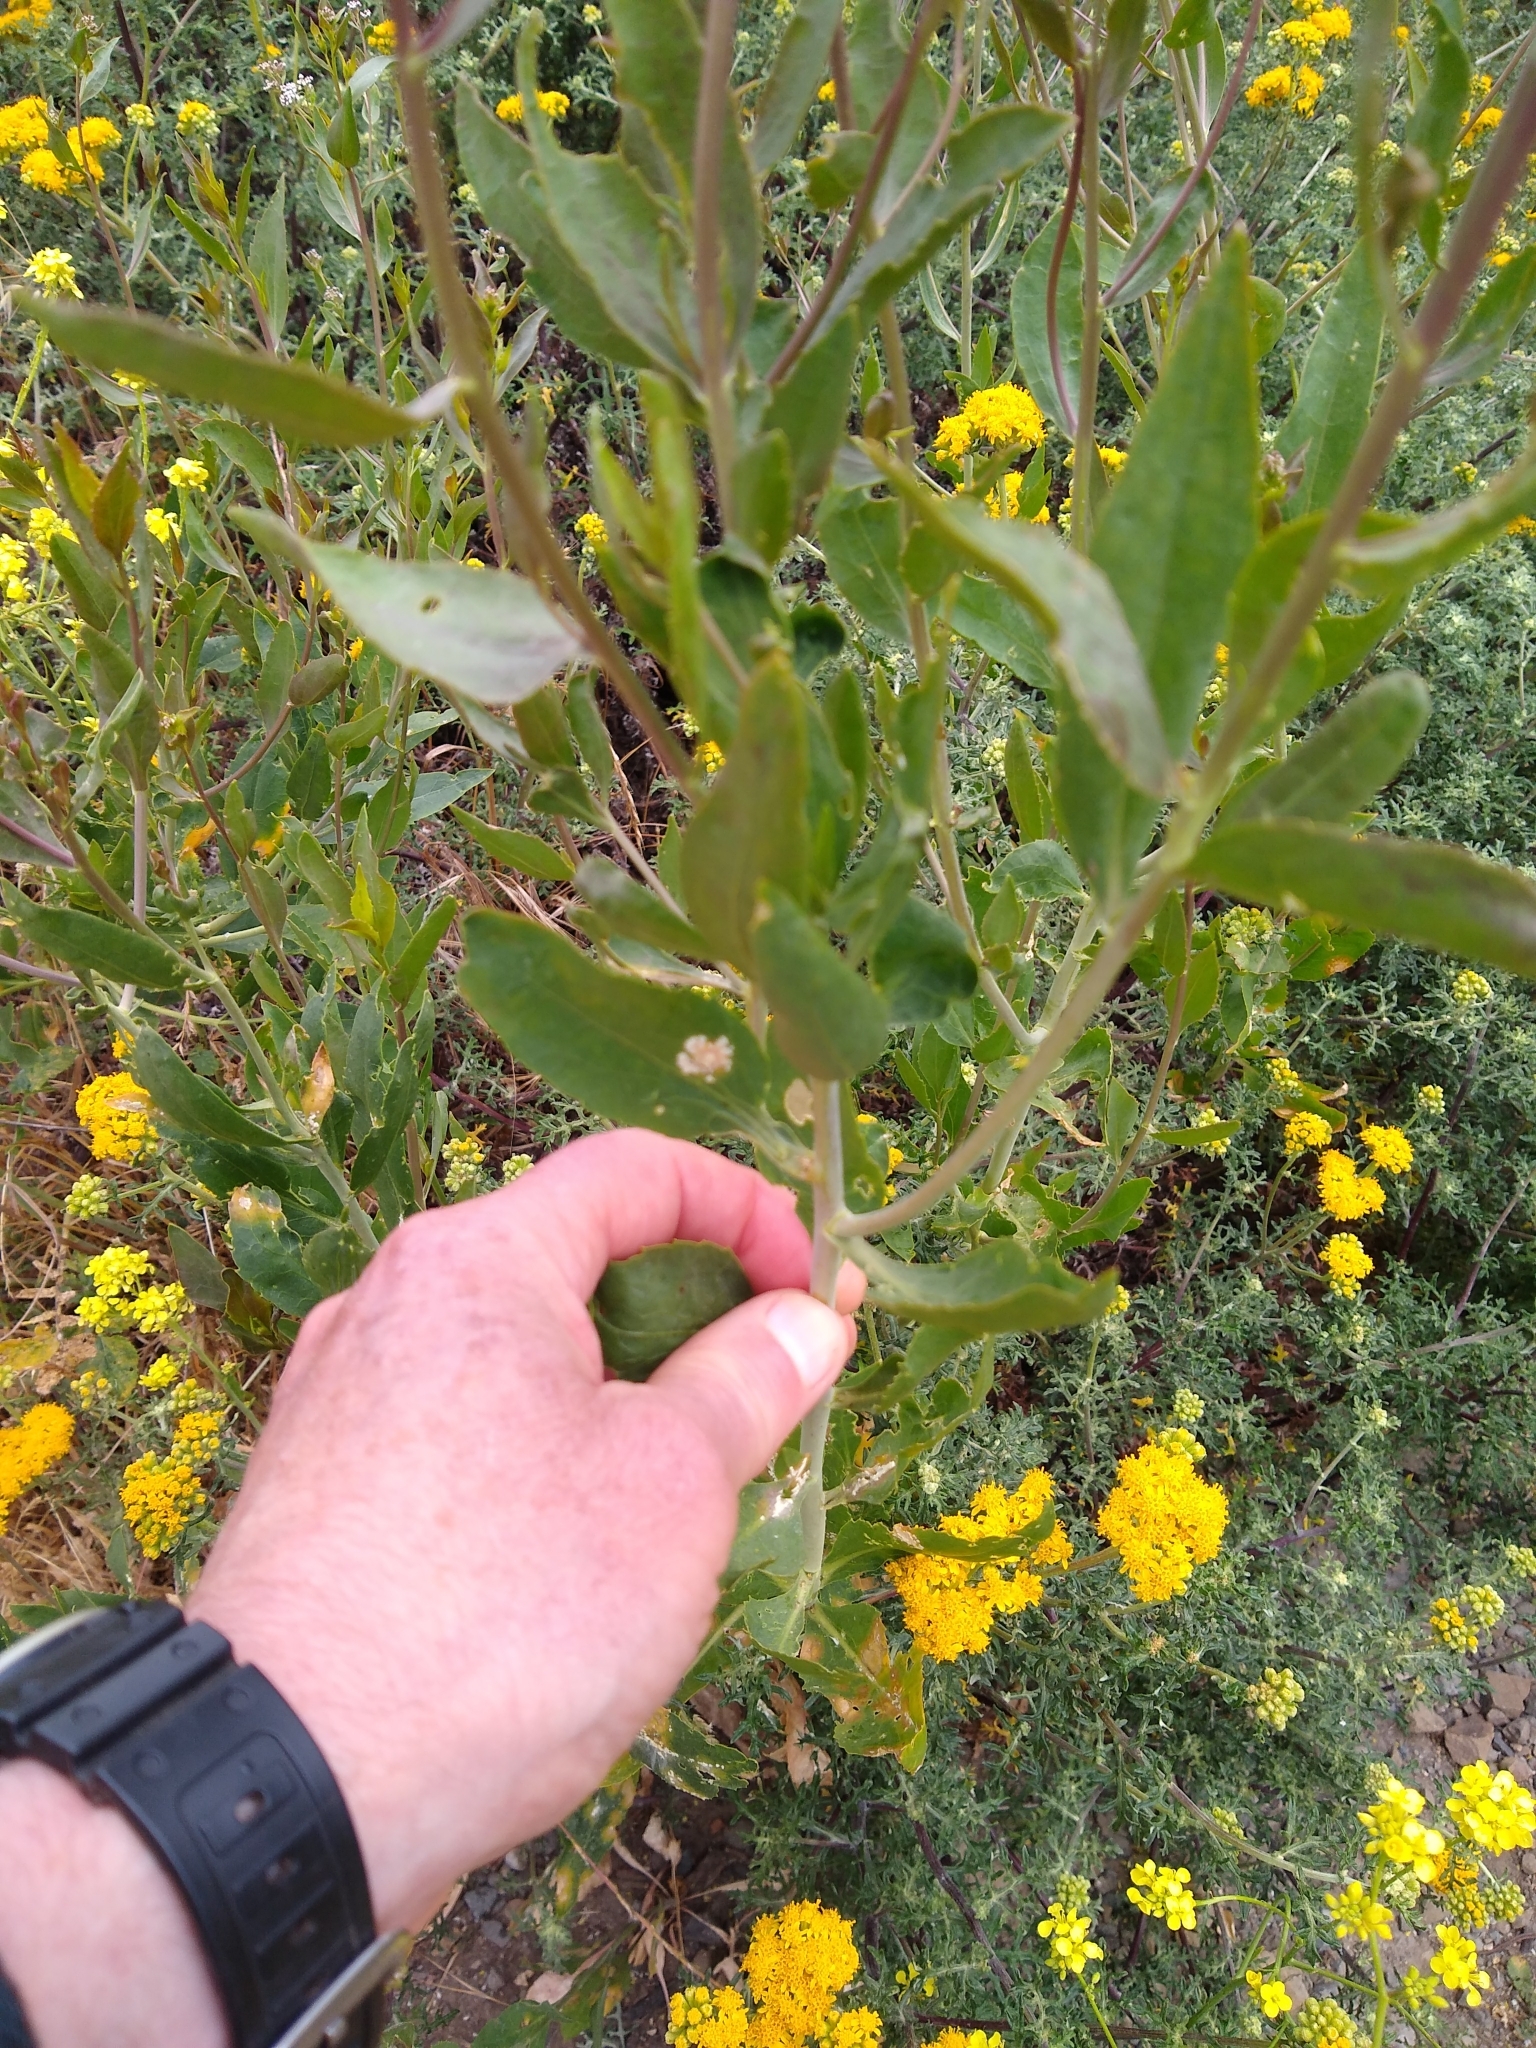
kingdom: Plantae
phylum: Tracheophyta
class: Magnoliopsida
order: Brassicales
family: Brassicaceae
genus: Lepidium
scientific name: Lepidium latifolium
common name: Dittander
